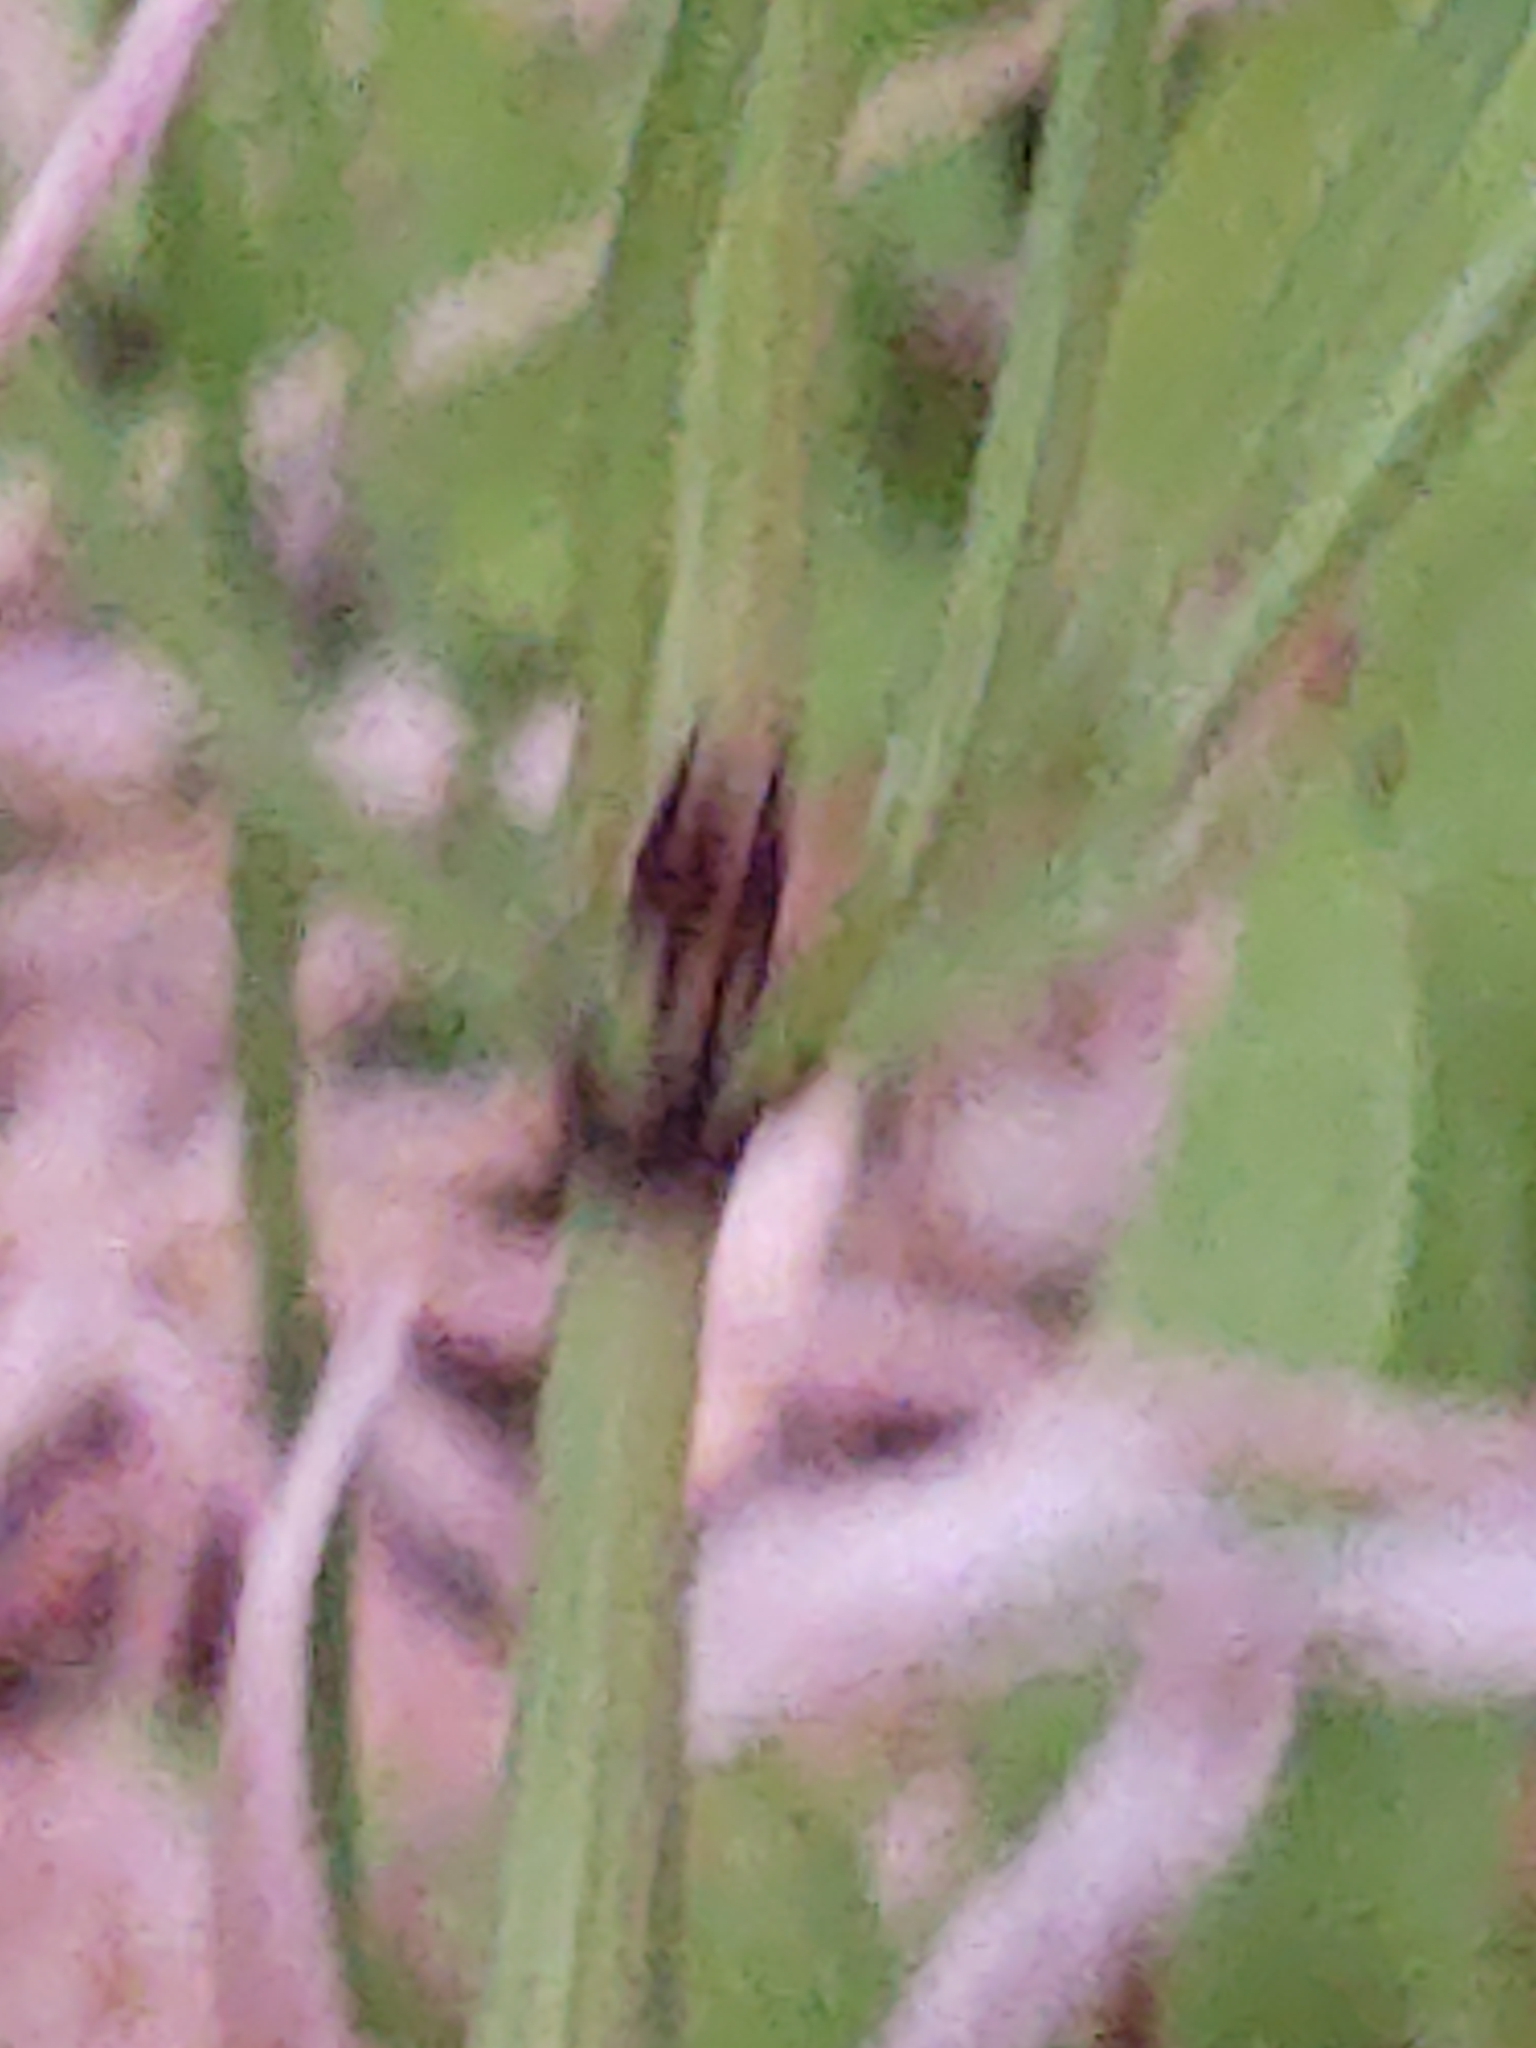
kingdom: Plantae
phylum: Tracheophyta
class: Polypodiopsida
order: Equisetales
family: Equisetaceae
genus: Equisetum
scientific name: Equisetum arvense
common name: Field horsetail
